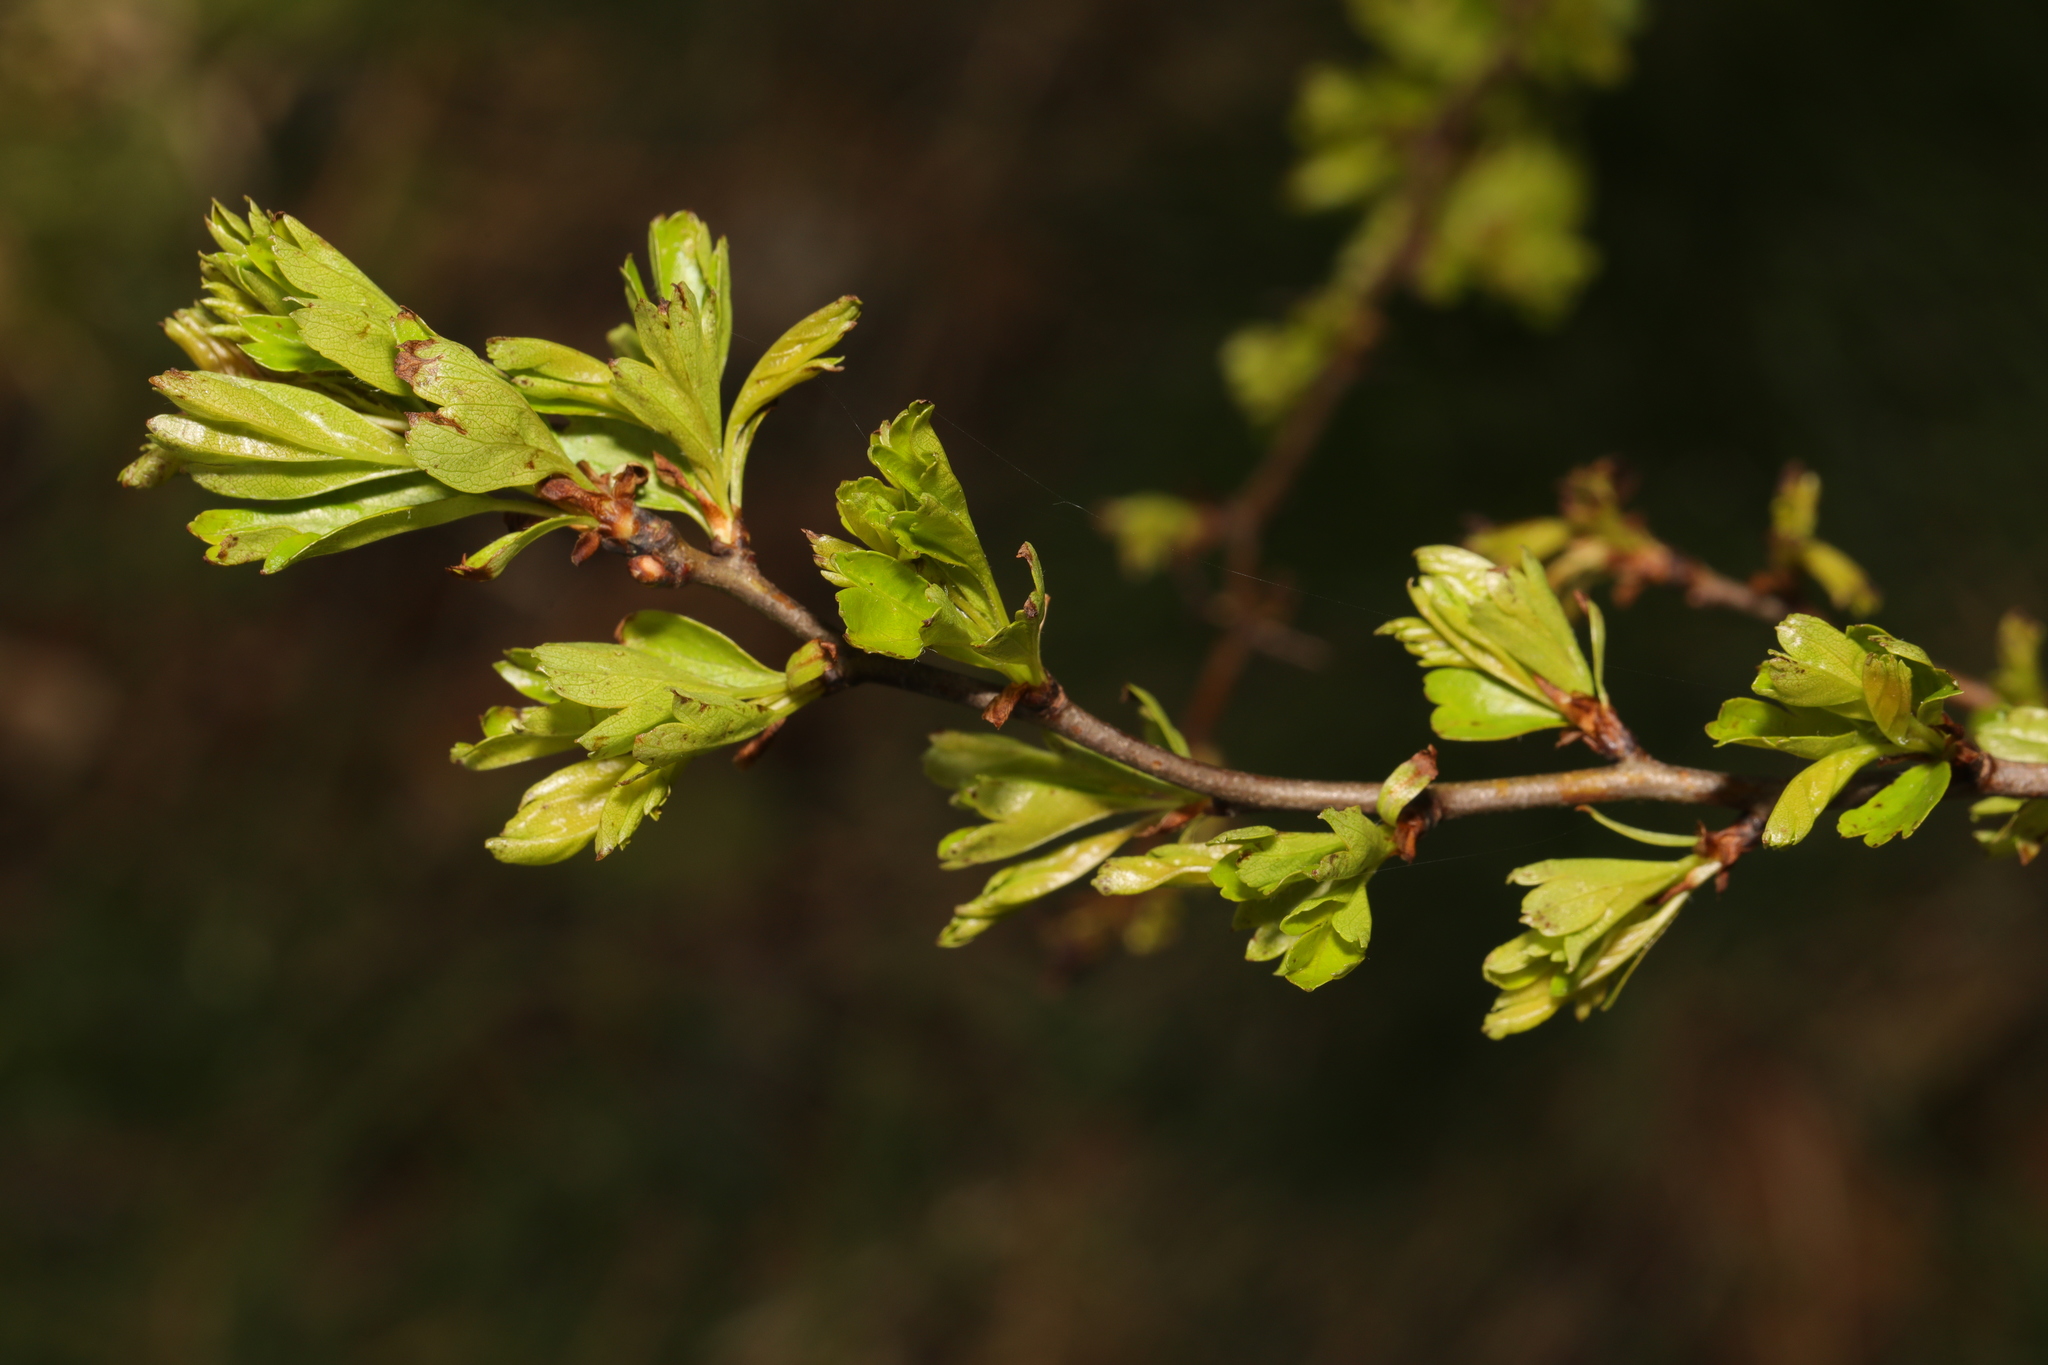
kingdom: Plantae
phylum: Tracheophyta
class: Magnoliopsida
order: Rosales
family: Rosaceae
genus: Crataegus
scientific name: Crataegus monogyna
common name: Hawthorn
